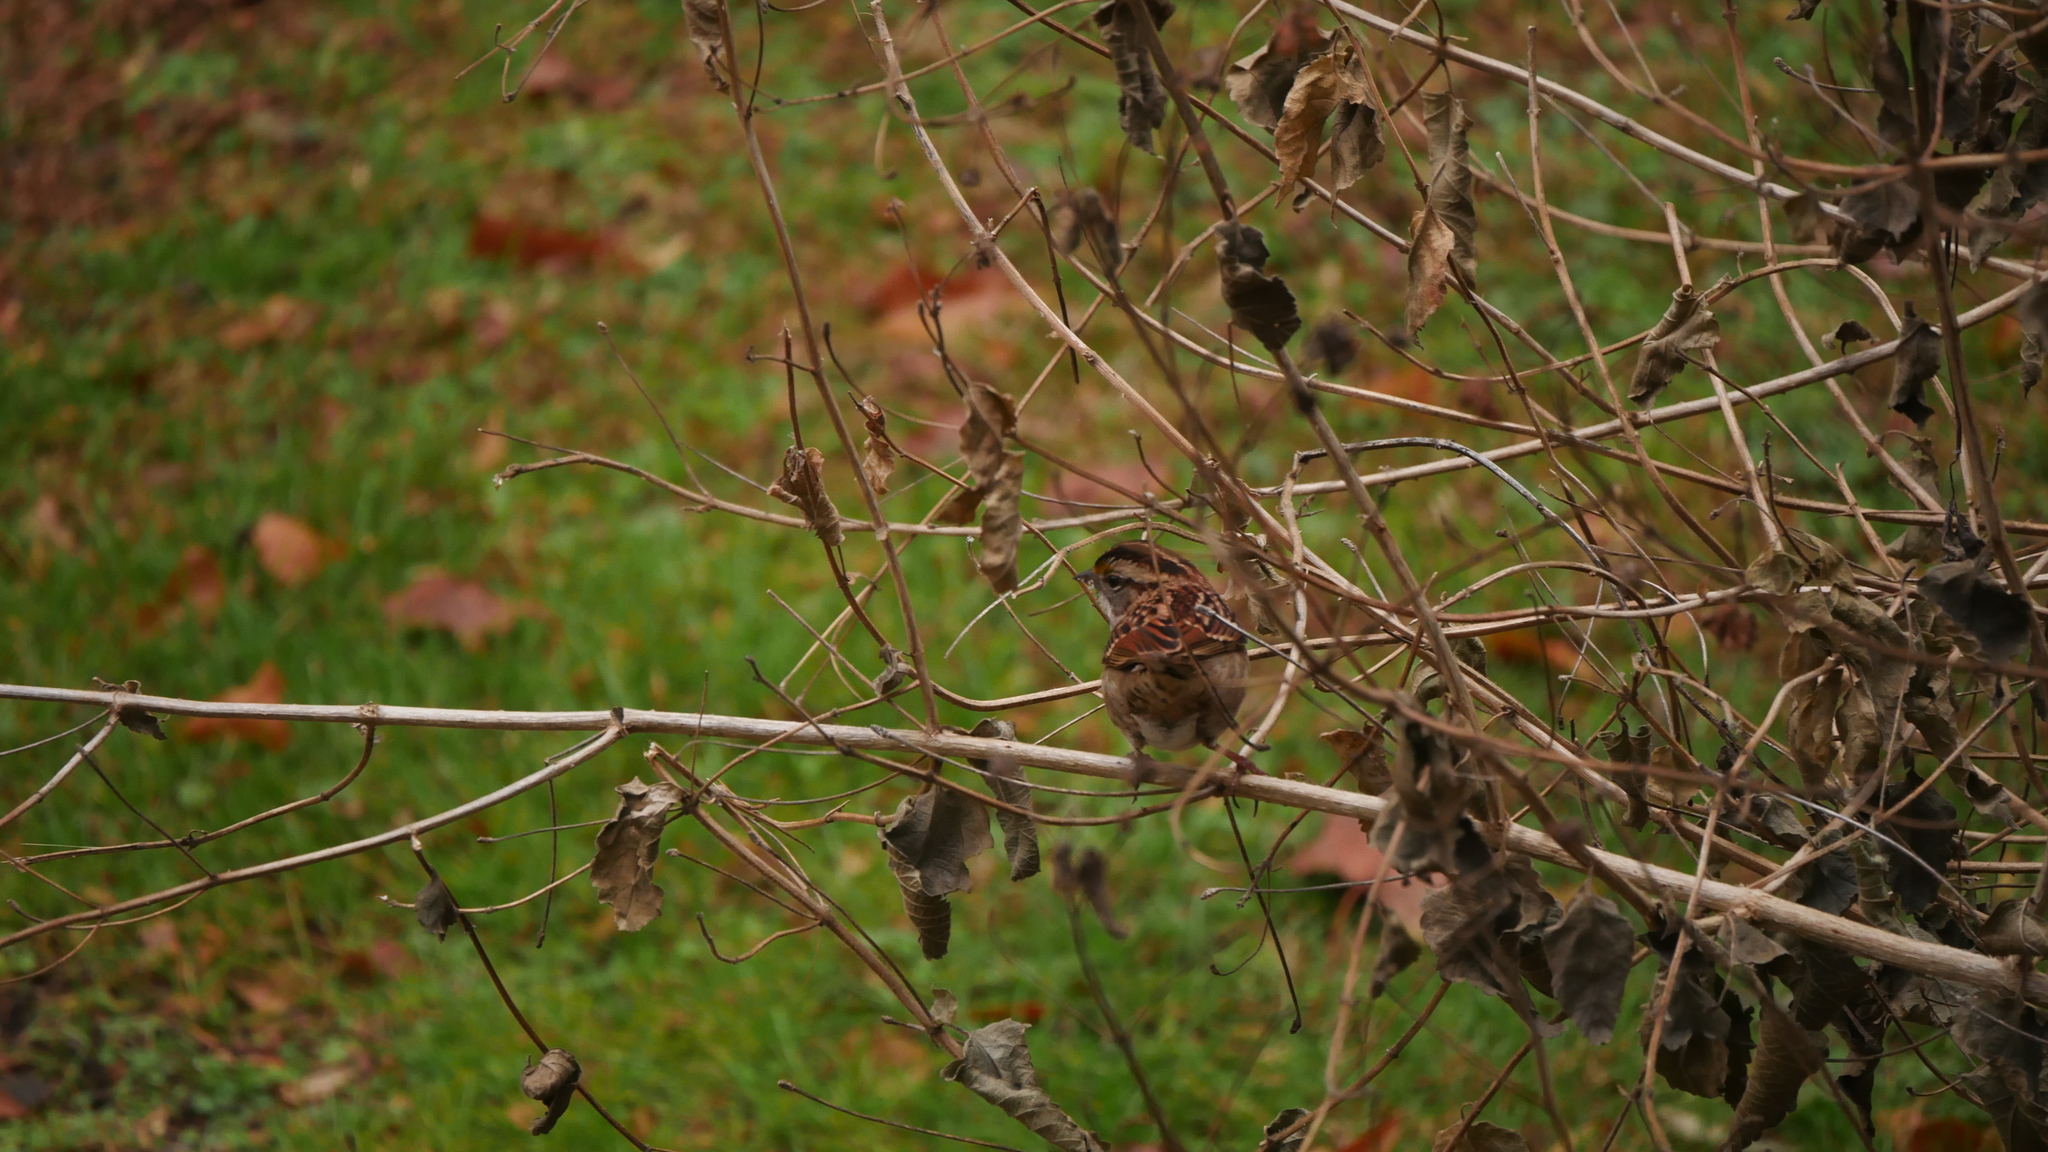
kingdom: Animalia
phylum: Chordata
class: Aves
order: Passeriformes
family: Passerellidae
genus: Zonotrichia
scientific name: Zonotrichia albicollis
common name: White-throated sparrow
